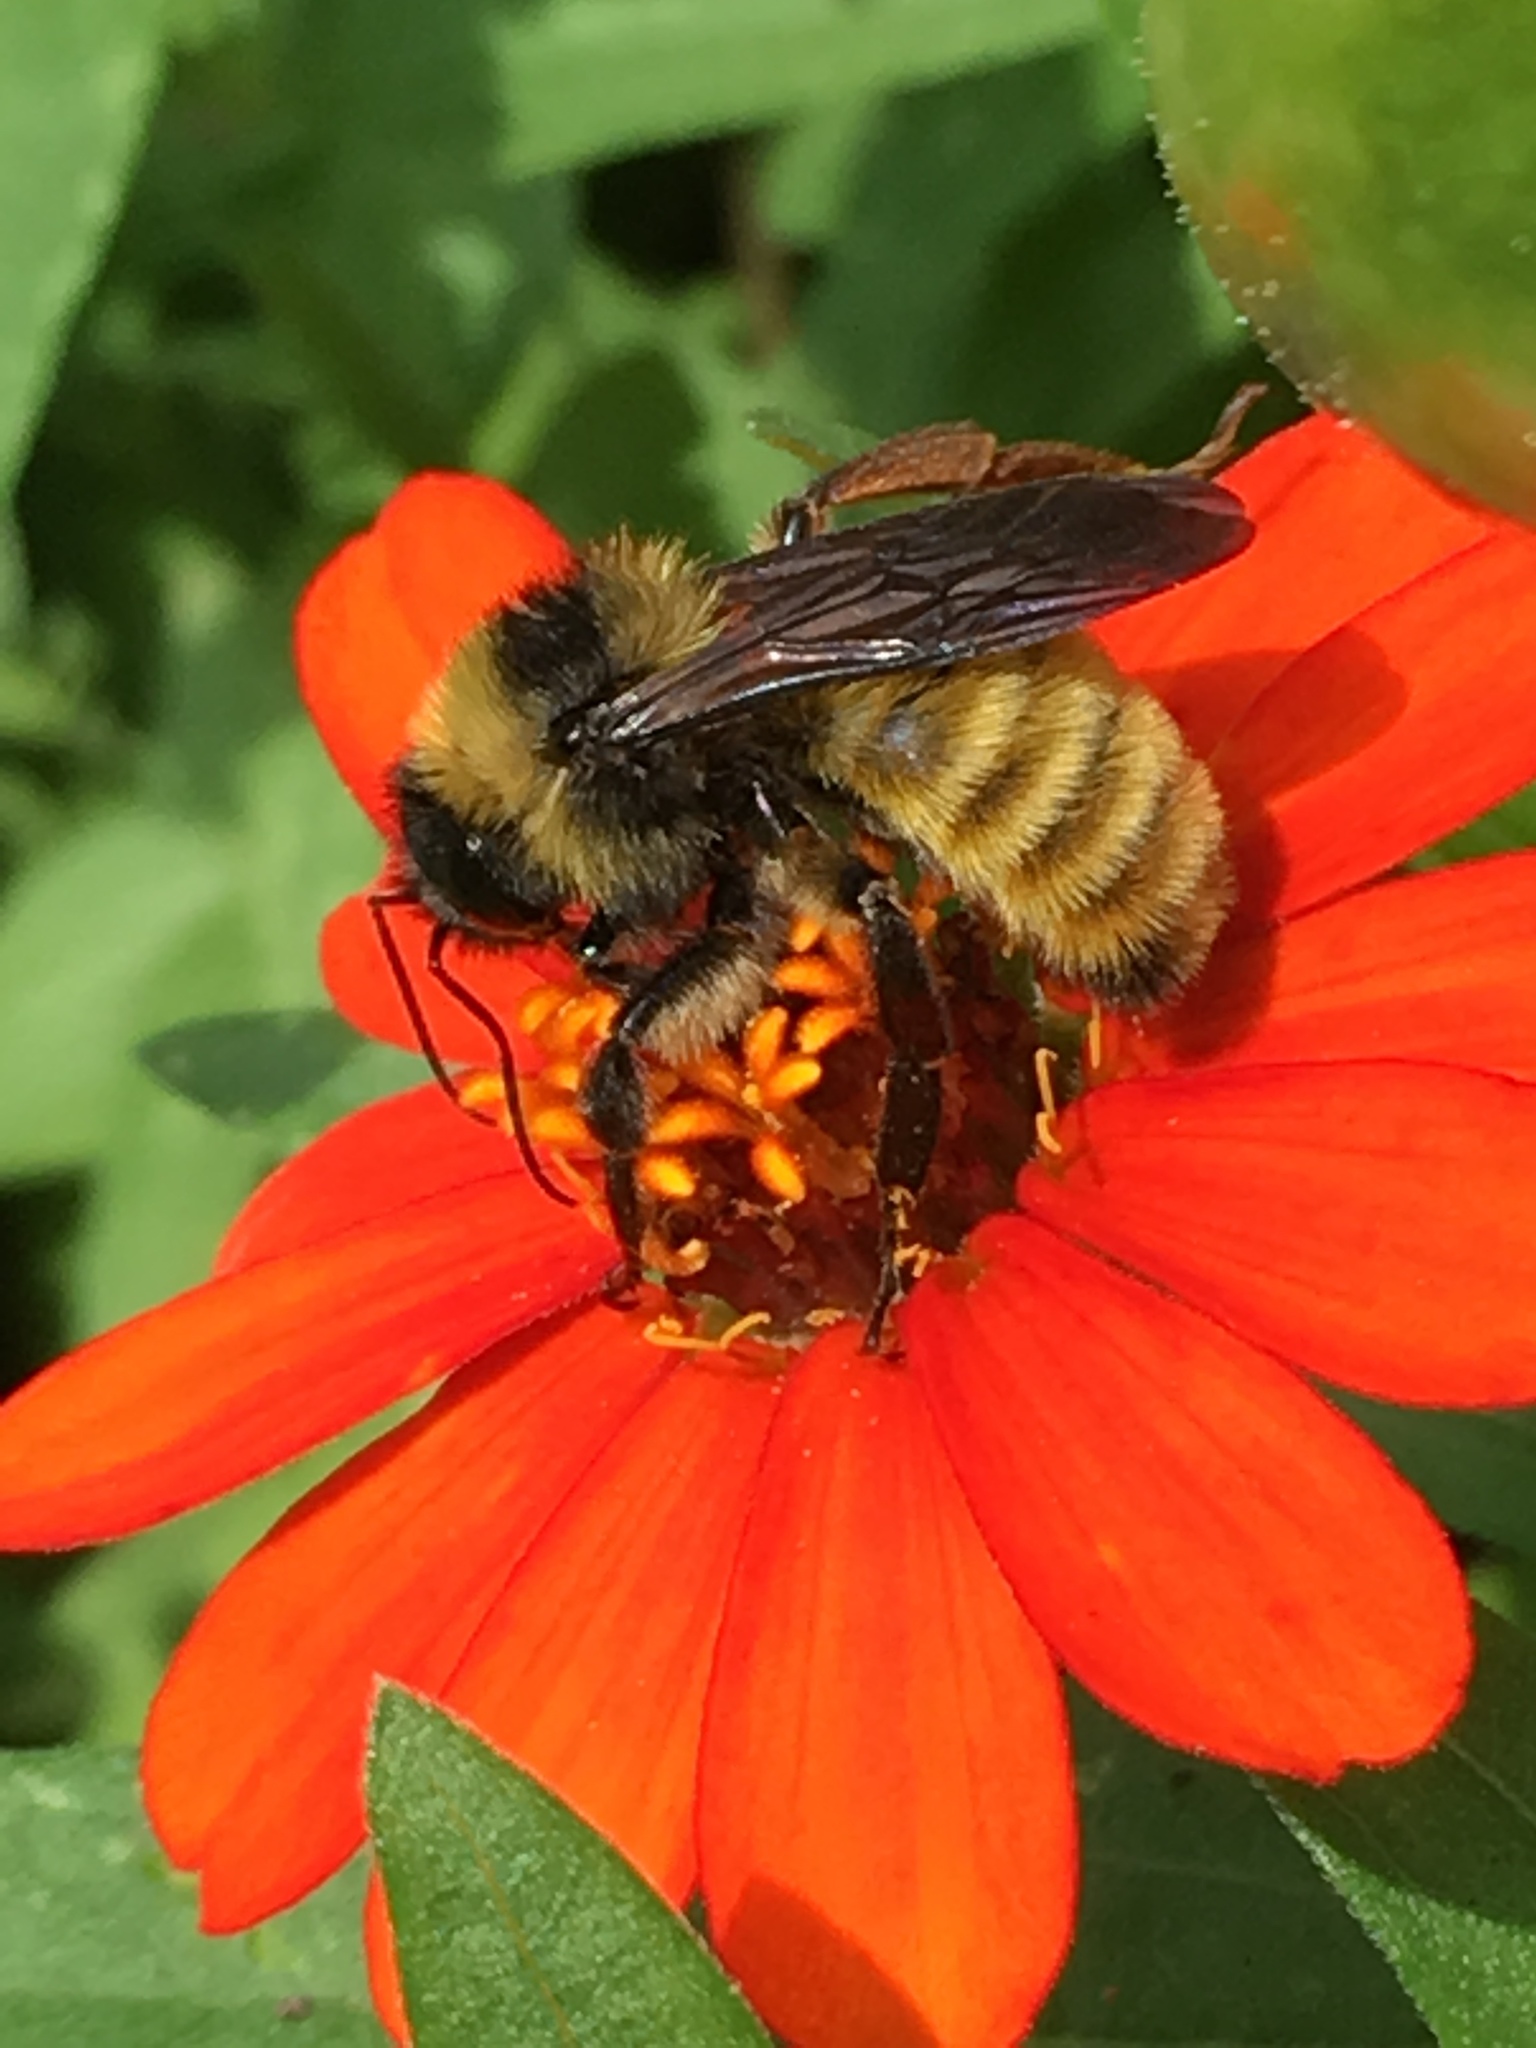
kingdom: Animalia
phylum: Arthropoda
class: Insecta
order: Hymenoptera
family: Apidae
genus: Bombus
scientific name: Bombus pensylvanicus
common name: Bumble bee
